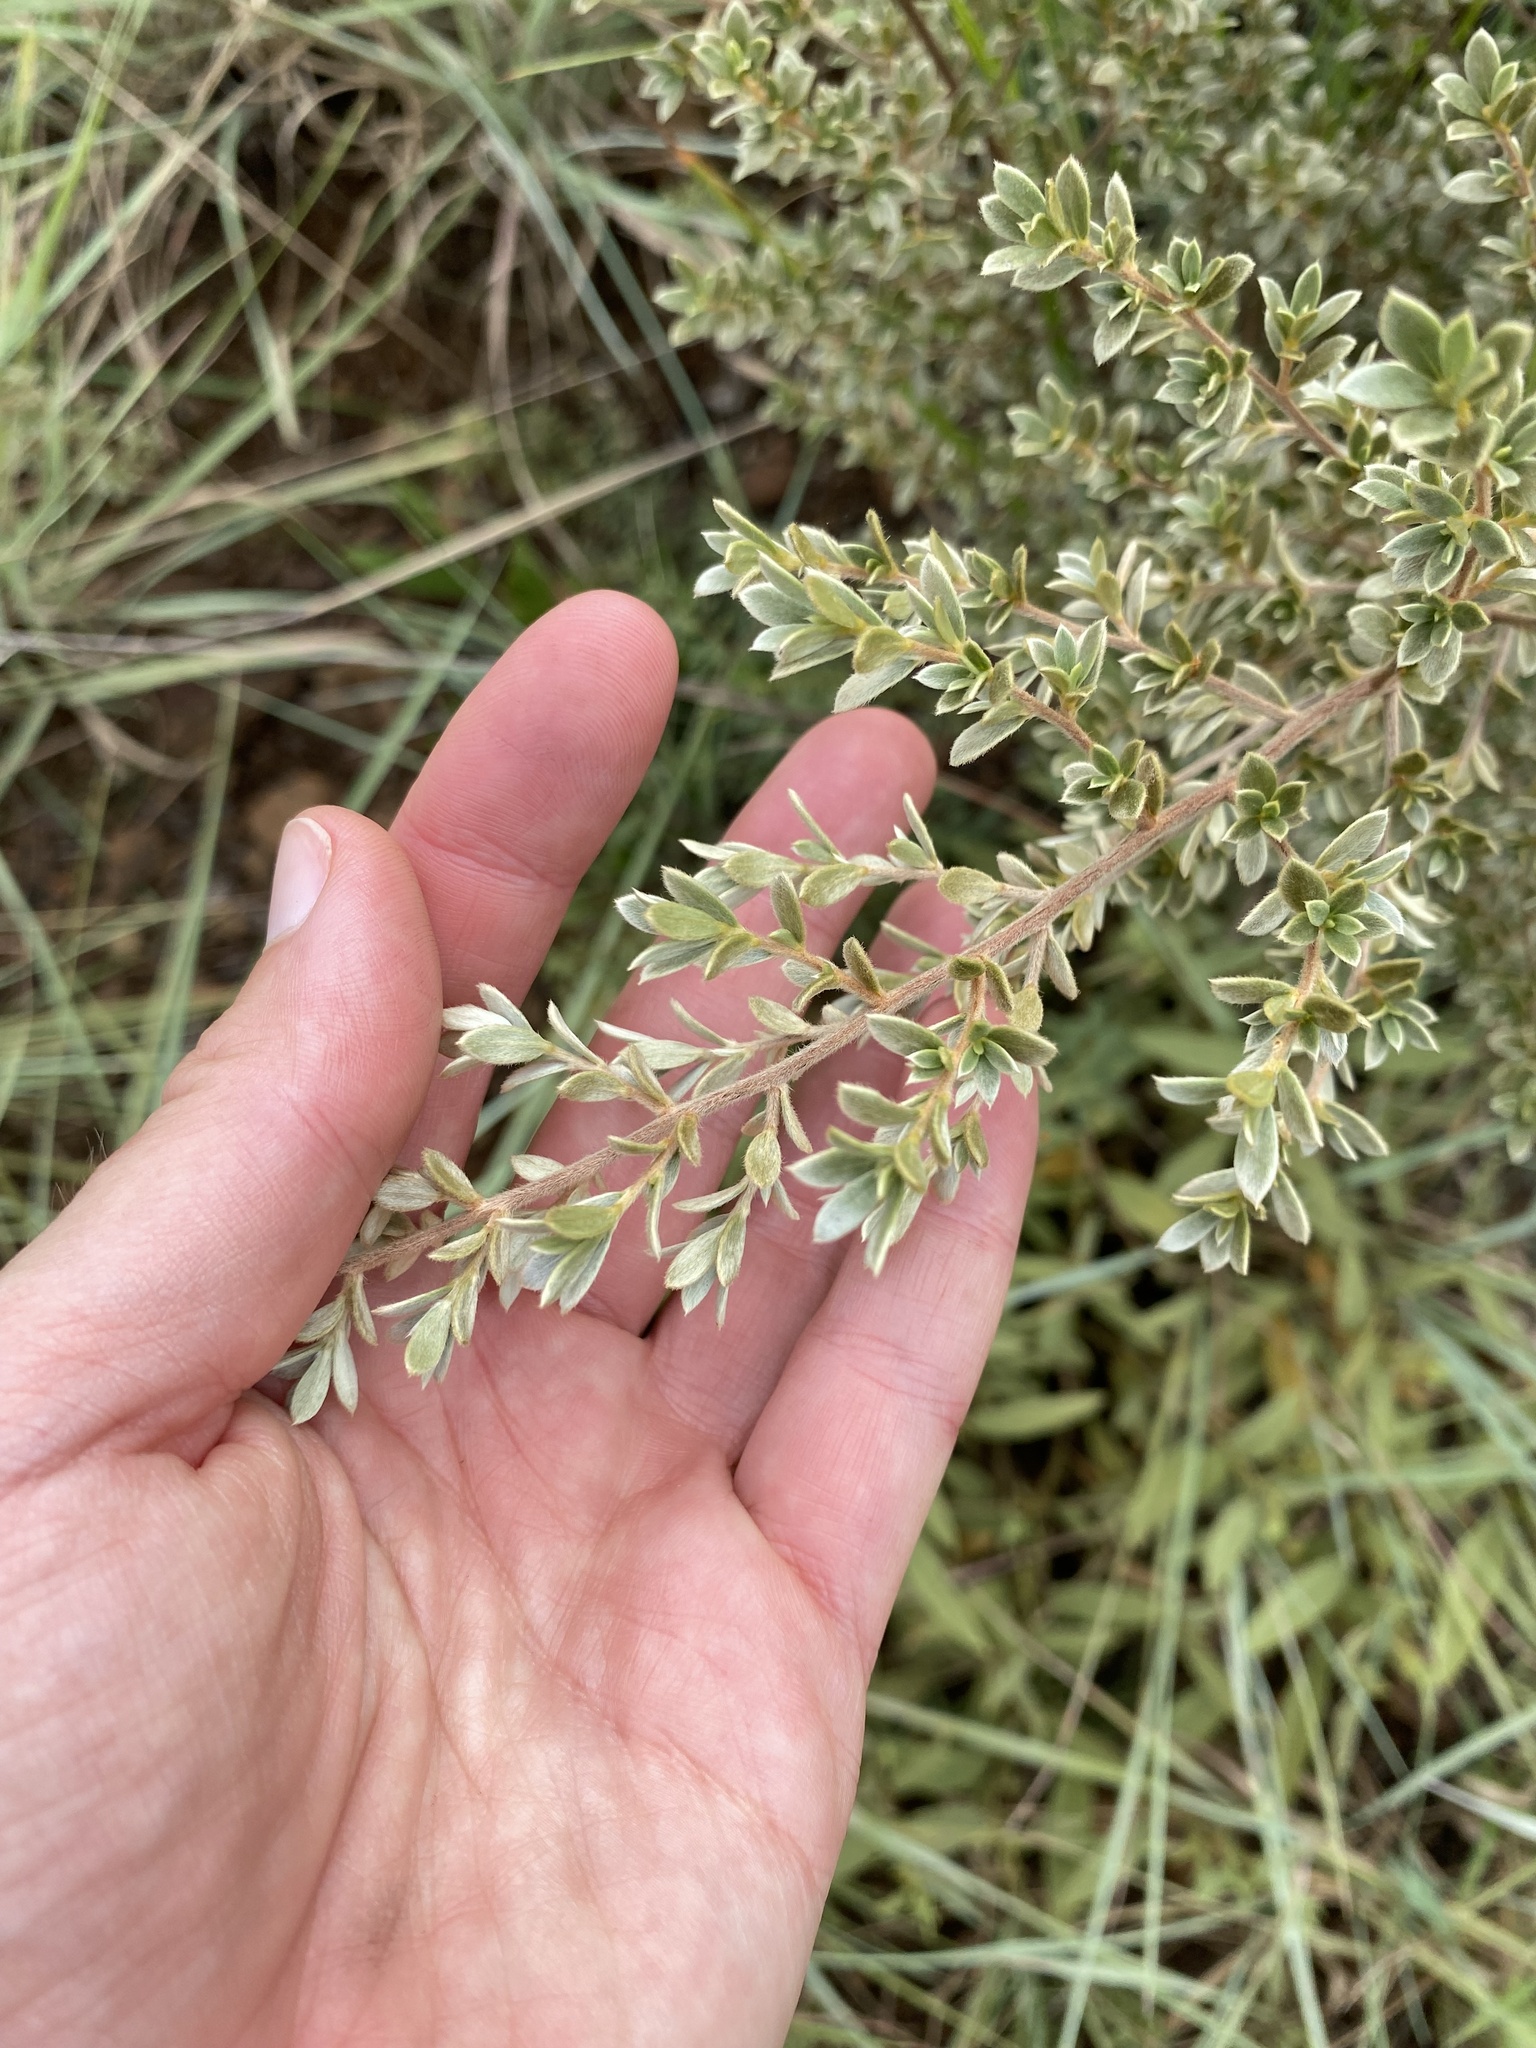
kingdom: Plantae
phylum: Tracheophyta
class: Magnoliopsida
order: Ericales
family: Ebenaceae
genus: Diospyros
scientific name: Diospyros lycioides
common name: Red star apple
